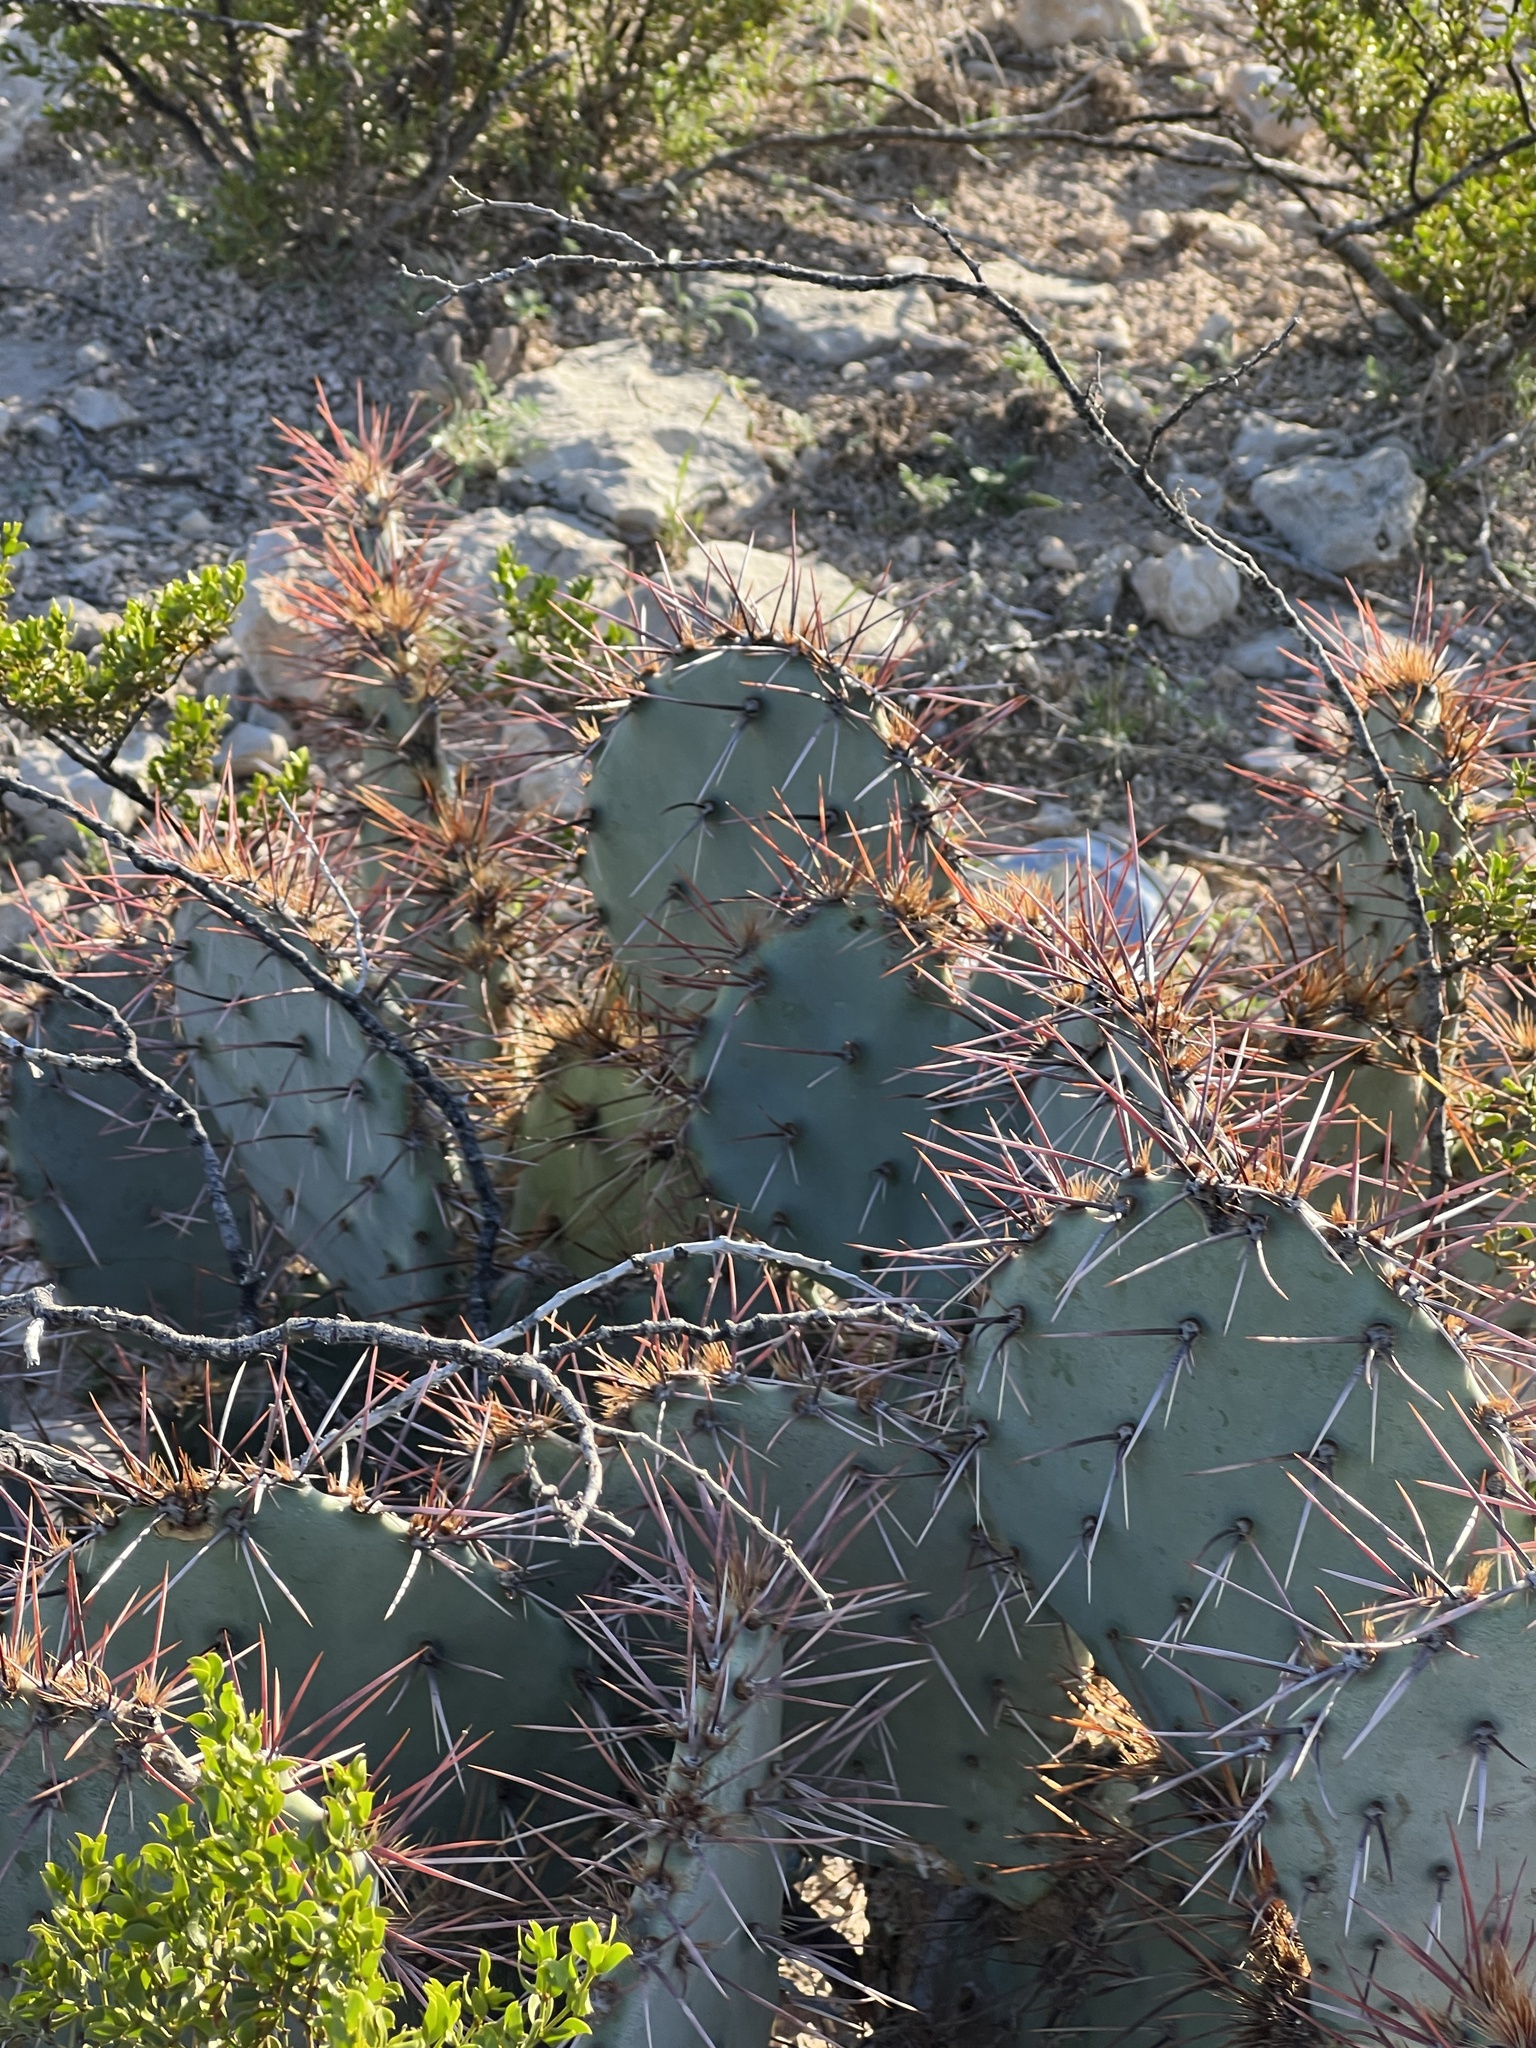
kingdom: Plantae
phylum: Tracheophyta
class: Magnoliopsida
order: Caryophyllales
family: Cactaceae
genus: Opuntia
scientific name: Opuntia macrocentra
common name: Purple prickly-pear
